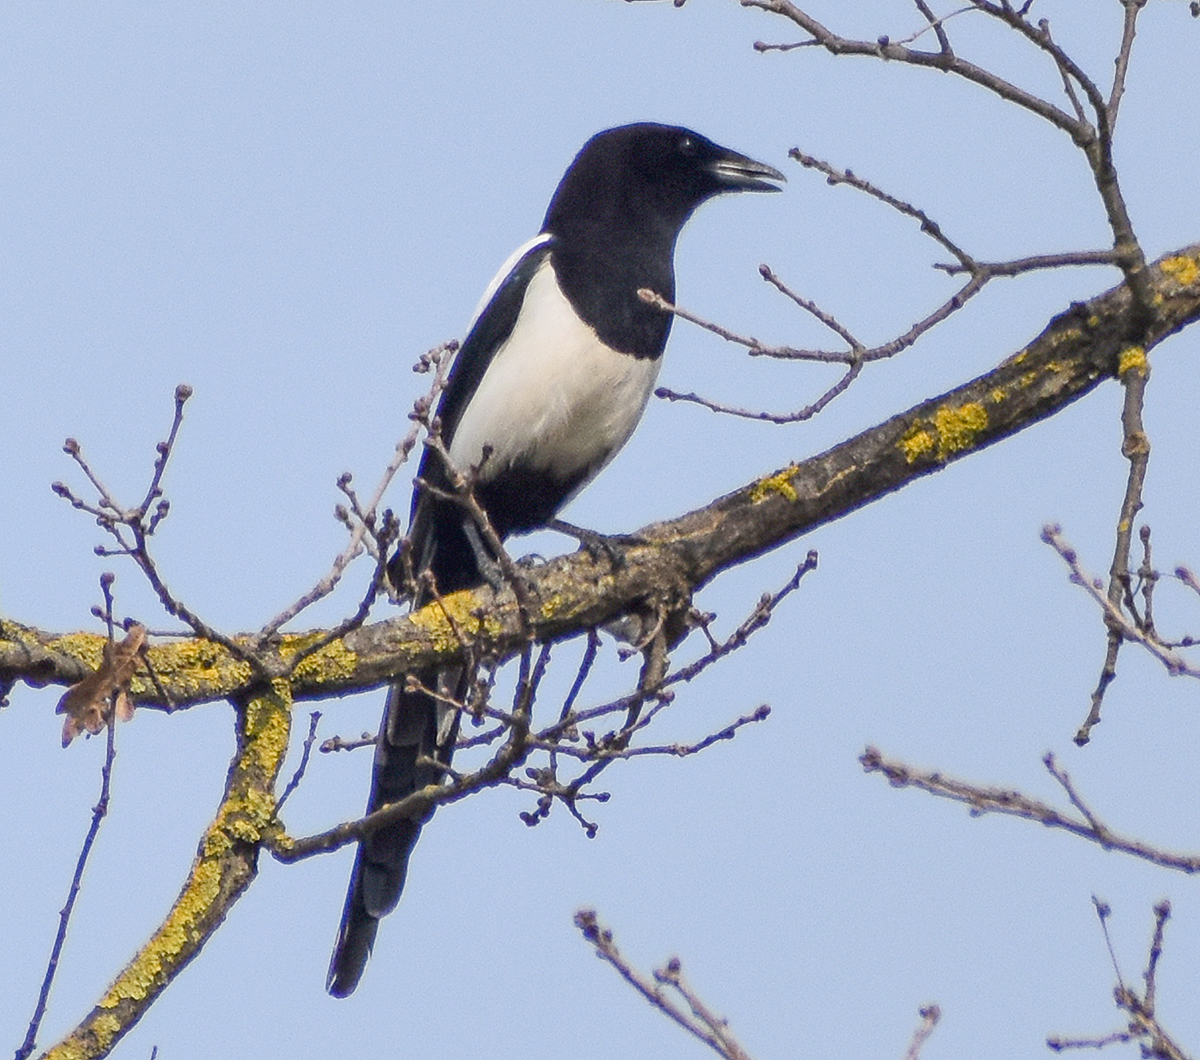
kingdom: Animalia
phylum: Chordata
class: Aves
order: Passeriformes
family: Corvidae
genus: Pica
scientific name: Pica pica
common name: Eurasian magpie
